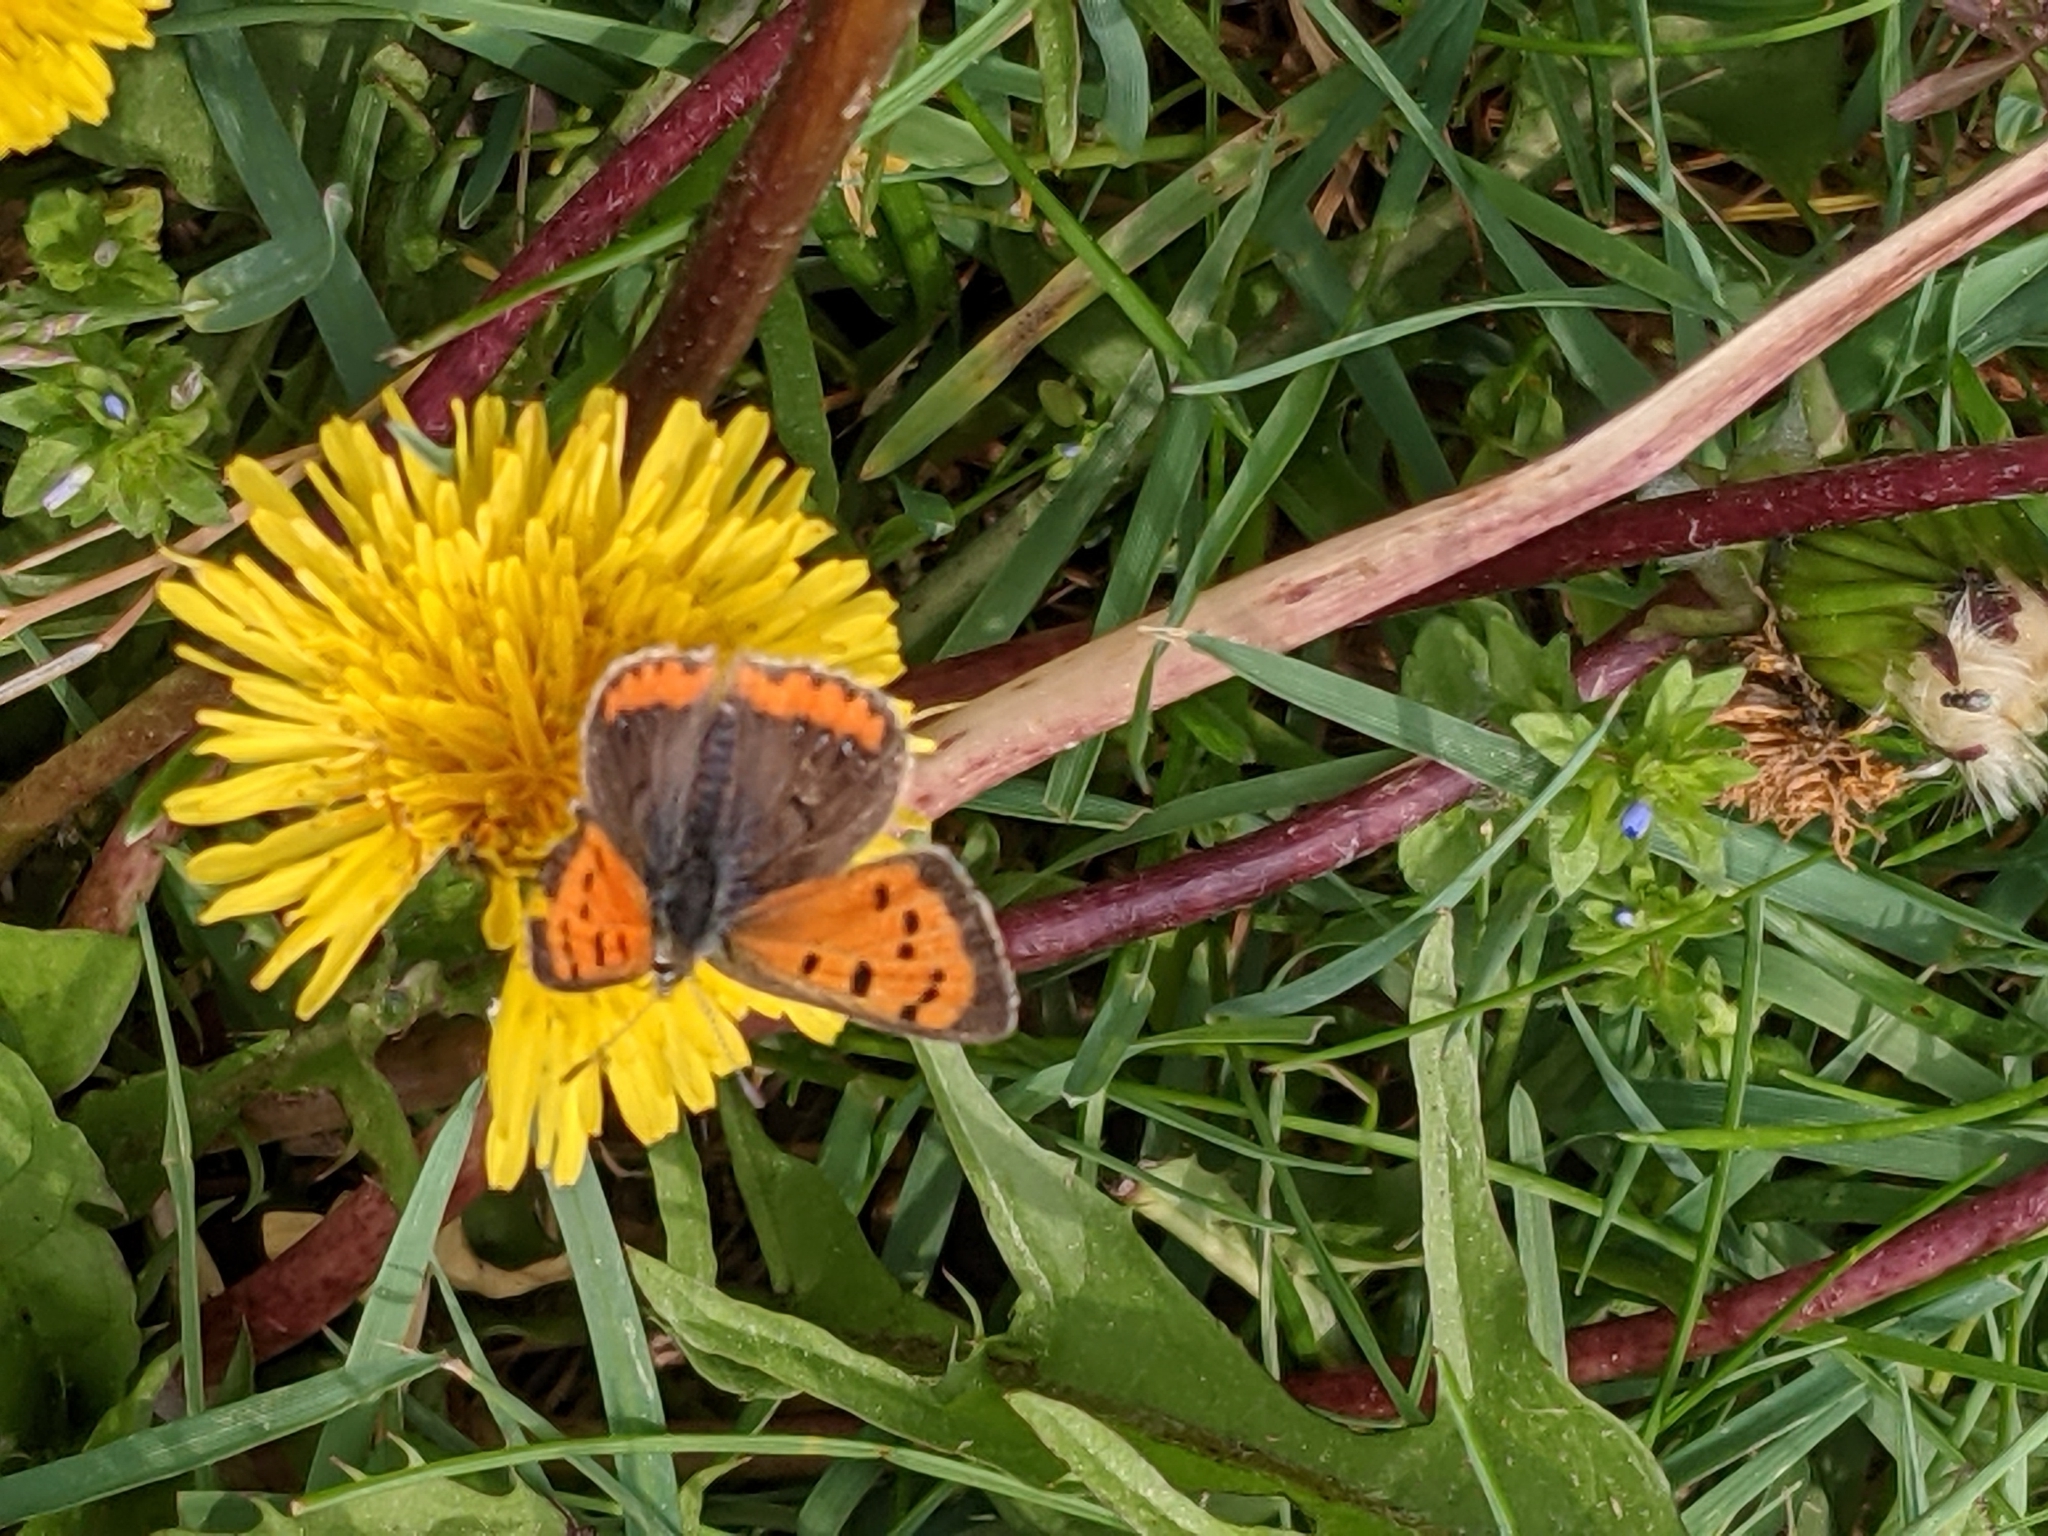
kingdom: Animalia
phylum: Arthropoda
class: Insecta
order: Lepidoptera
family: Lycaenidae
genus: Lycaena
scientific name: Lycaena hypophlaeas
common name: American copper
